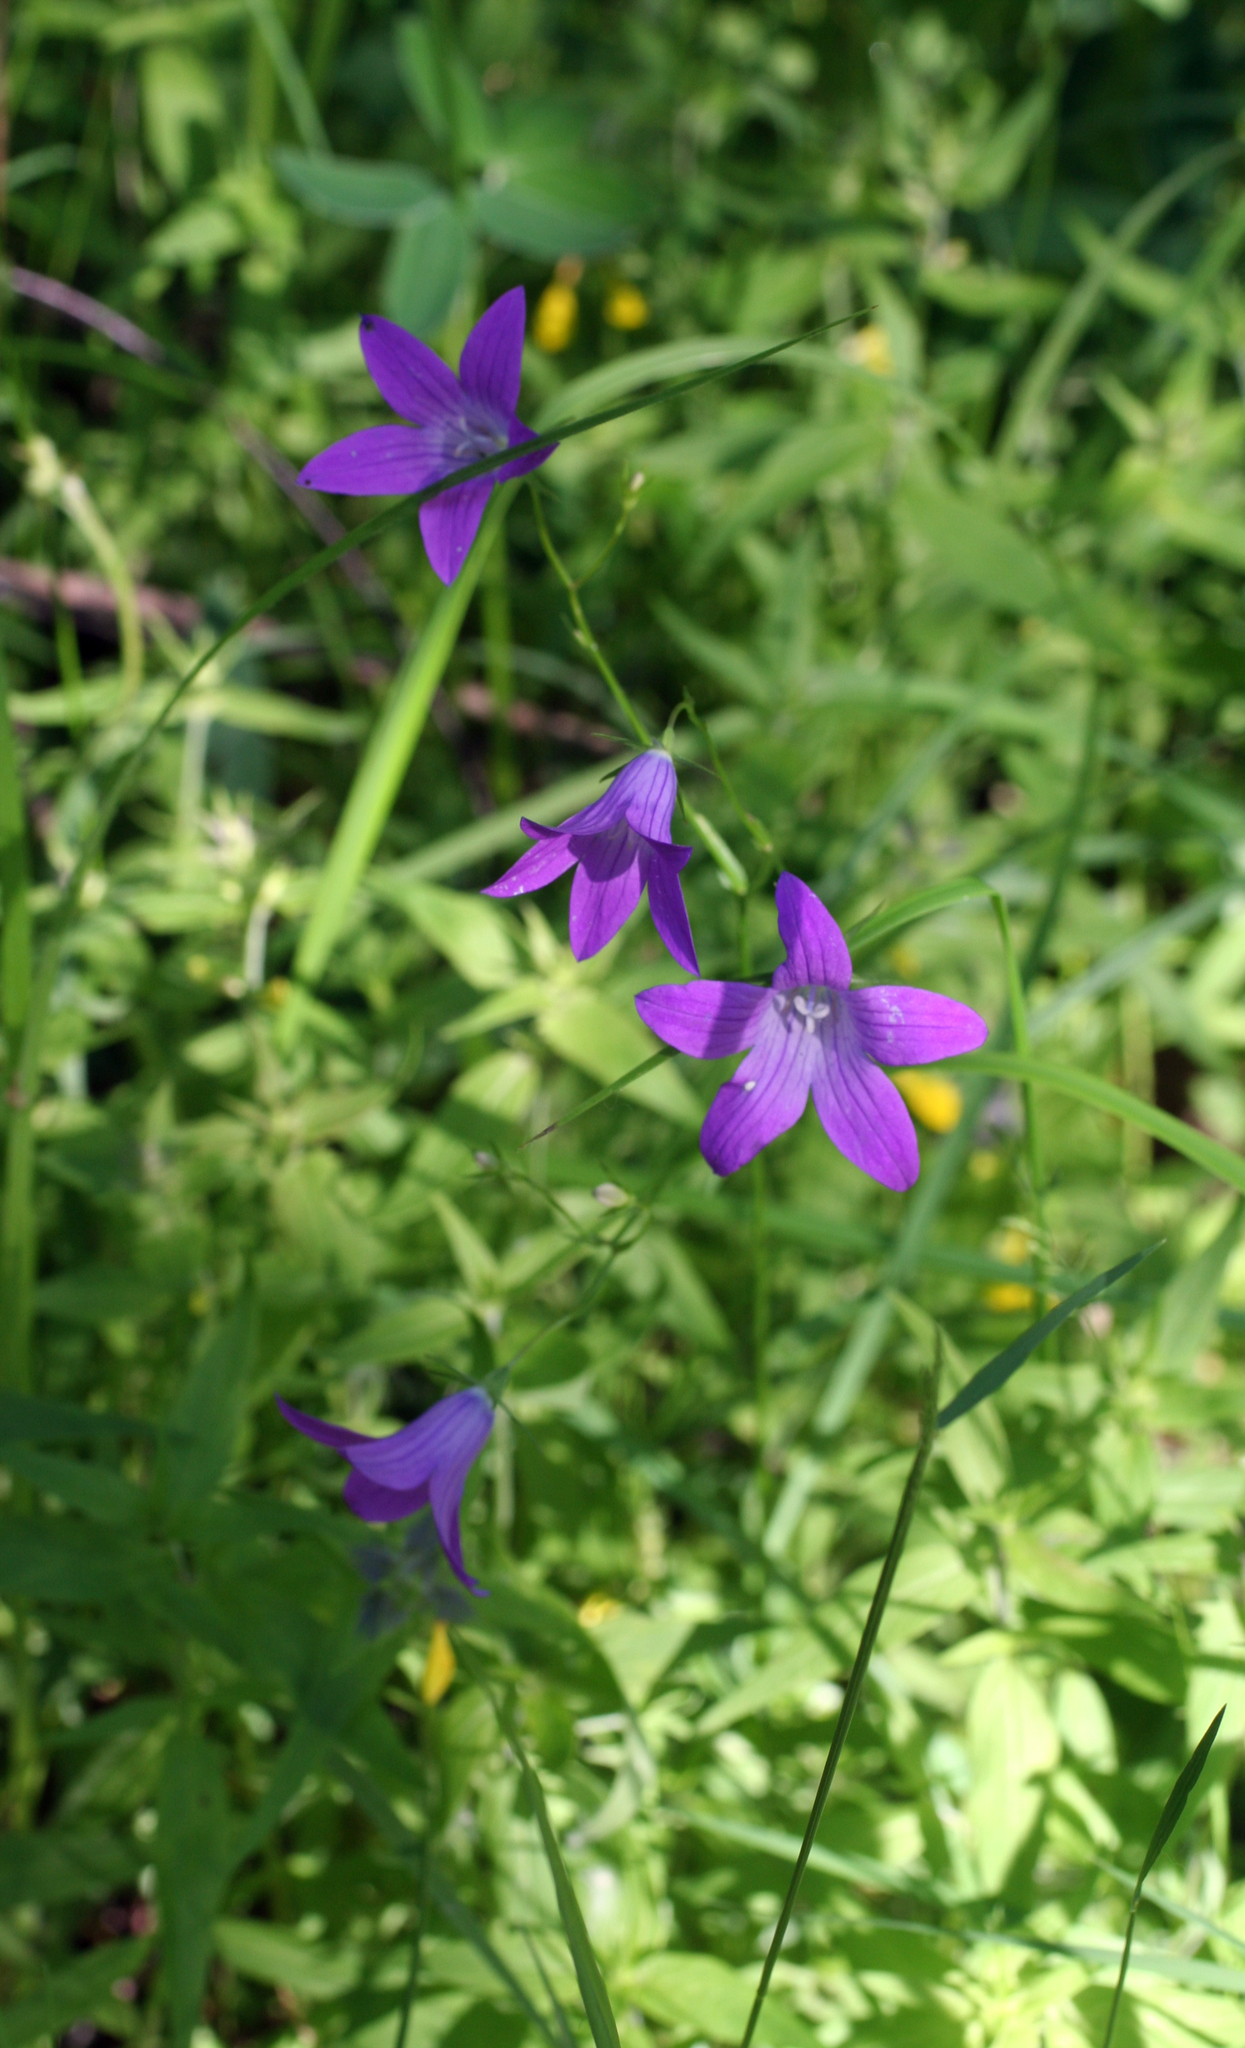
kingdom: Plantae
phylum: Tracheophyta
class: Magnoliopsida
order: Asterales
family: Campanulaceae
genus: Campanula
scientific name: Campanula patula
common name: Spreading bellflower
